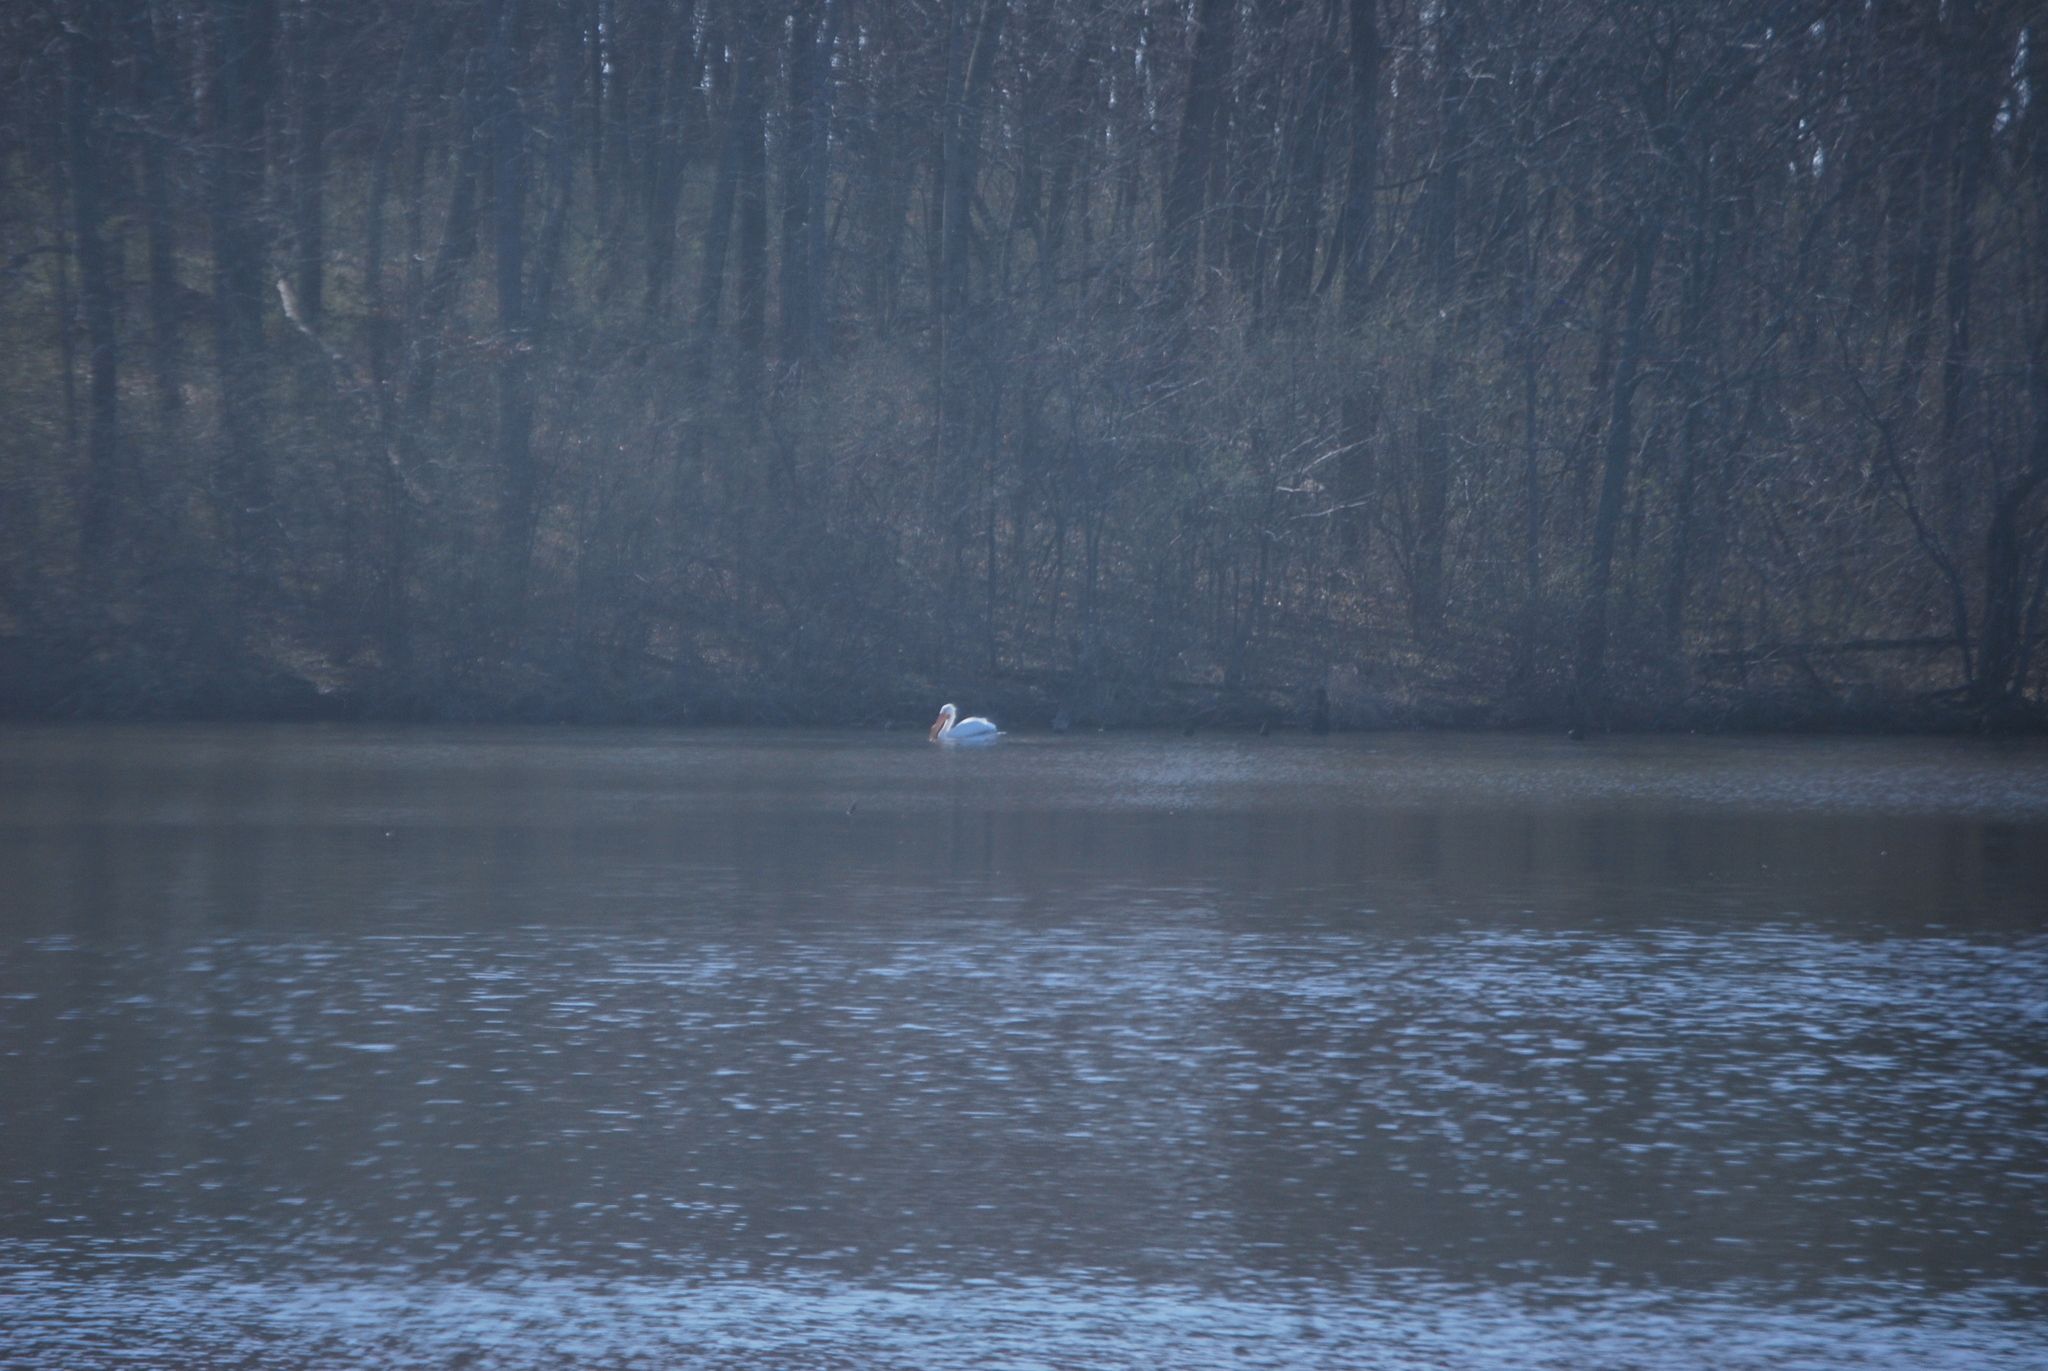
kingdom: Animalia
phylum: Chordata
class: Aves
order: Pelecaniformes
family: Pelecanidae
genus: Pelecanus
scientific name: Pelecanus erythrorhynchos
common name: American white pelican
